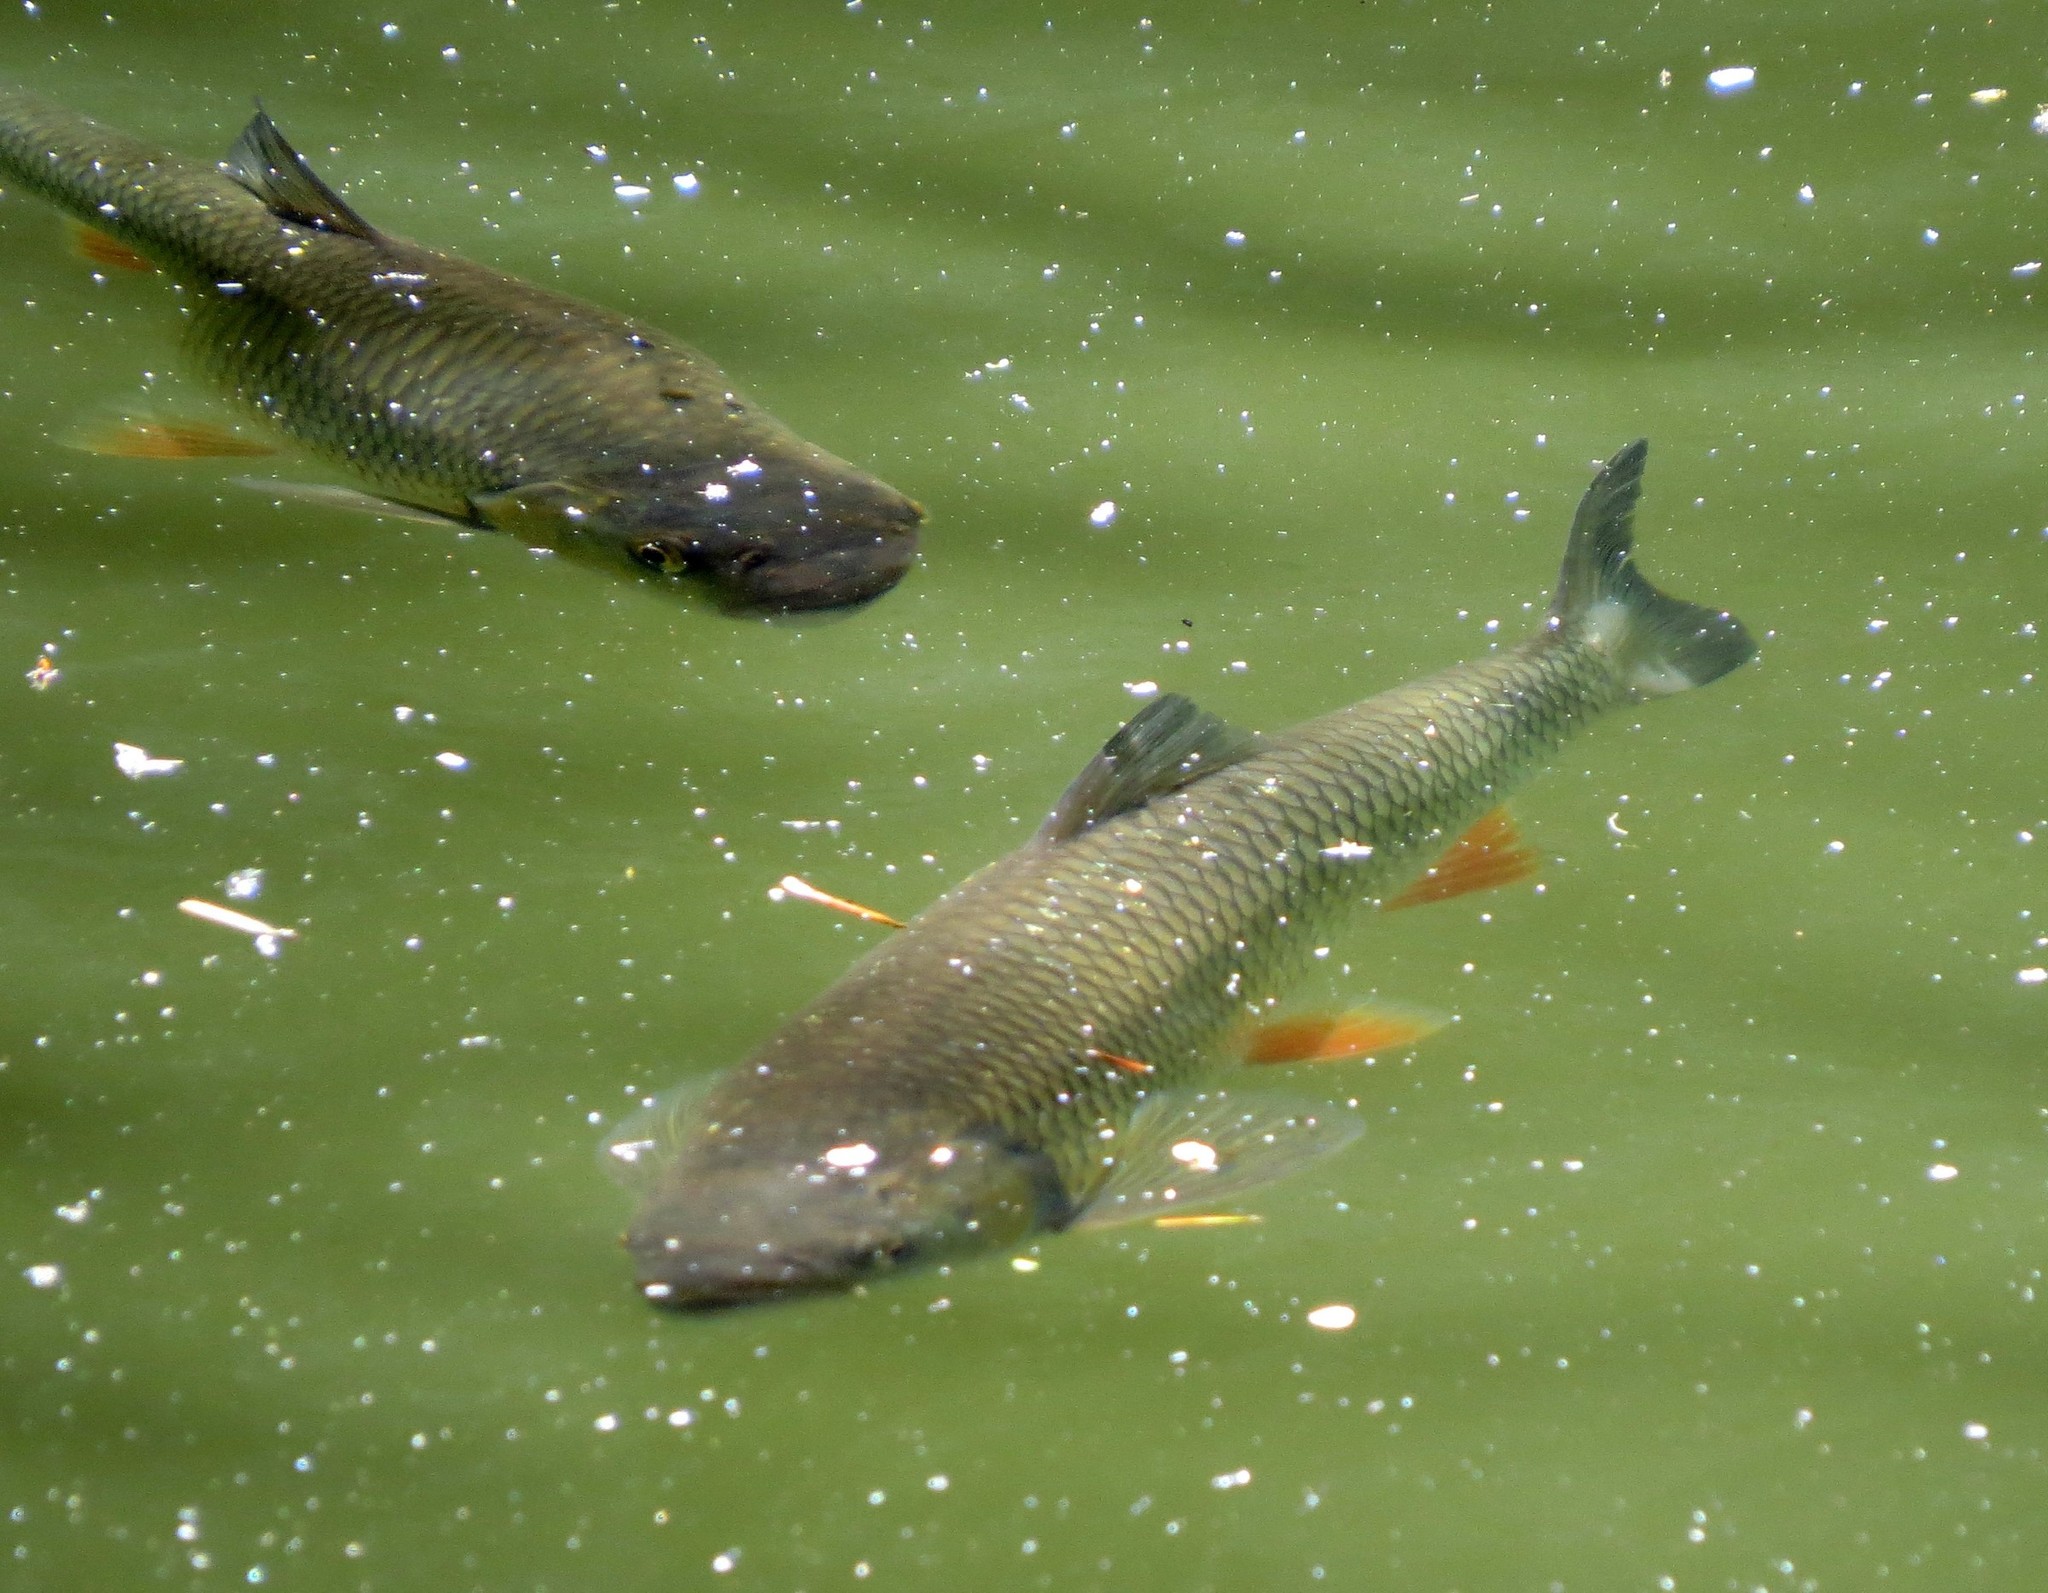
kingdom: Animalia
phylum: Chordata
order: Cypriniformes
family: Cyprinidae
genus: Squalius
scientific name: Squalius cephalus
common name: Chub
